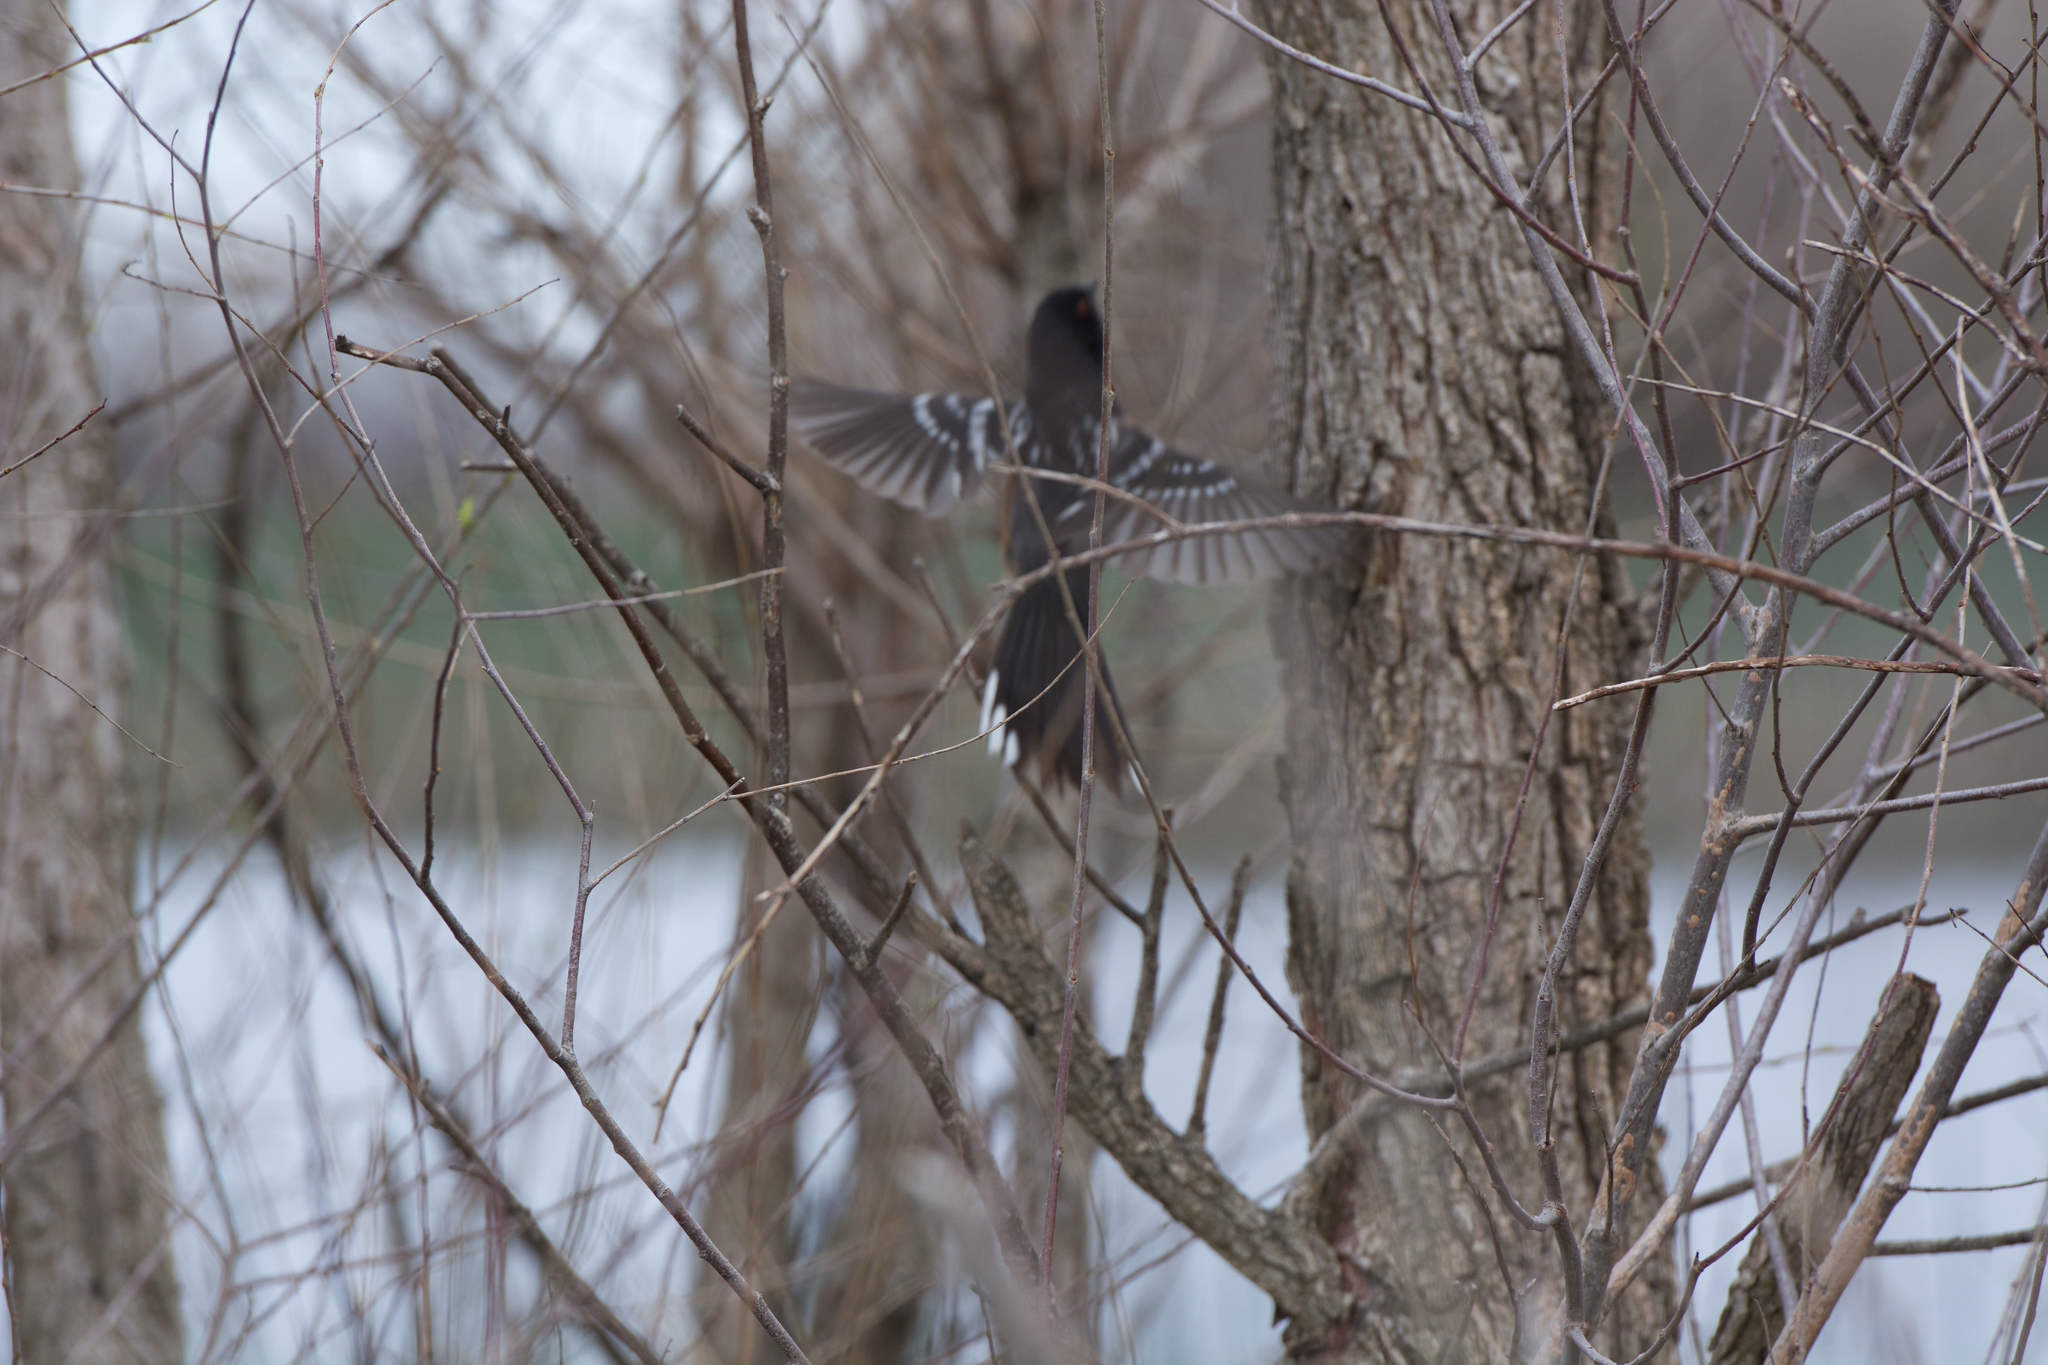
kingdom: Animalia
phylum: Chordata
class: Aves
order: Passeriformes
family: Passerellidae
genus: Pipilo
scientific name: Pipilo maculatus
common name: Spotted towhee
